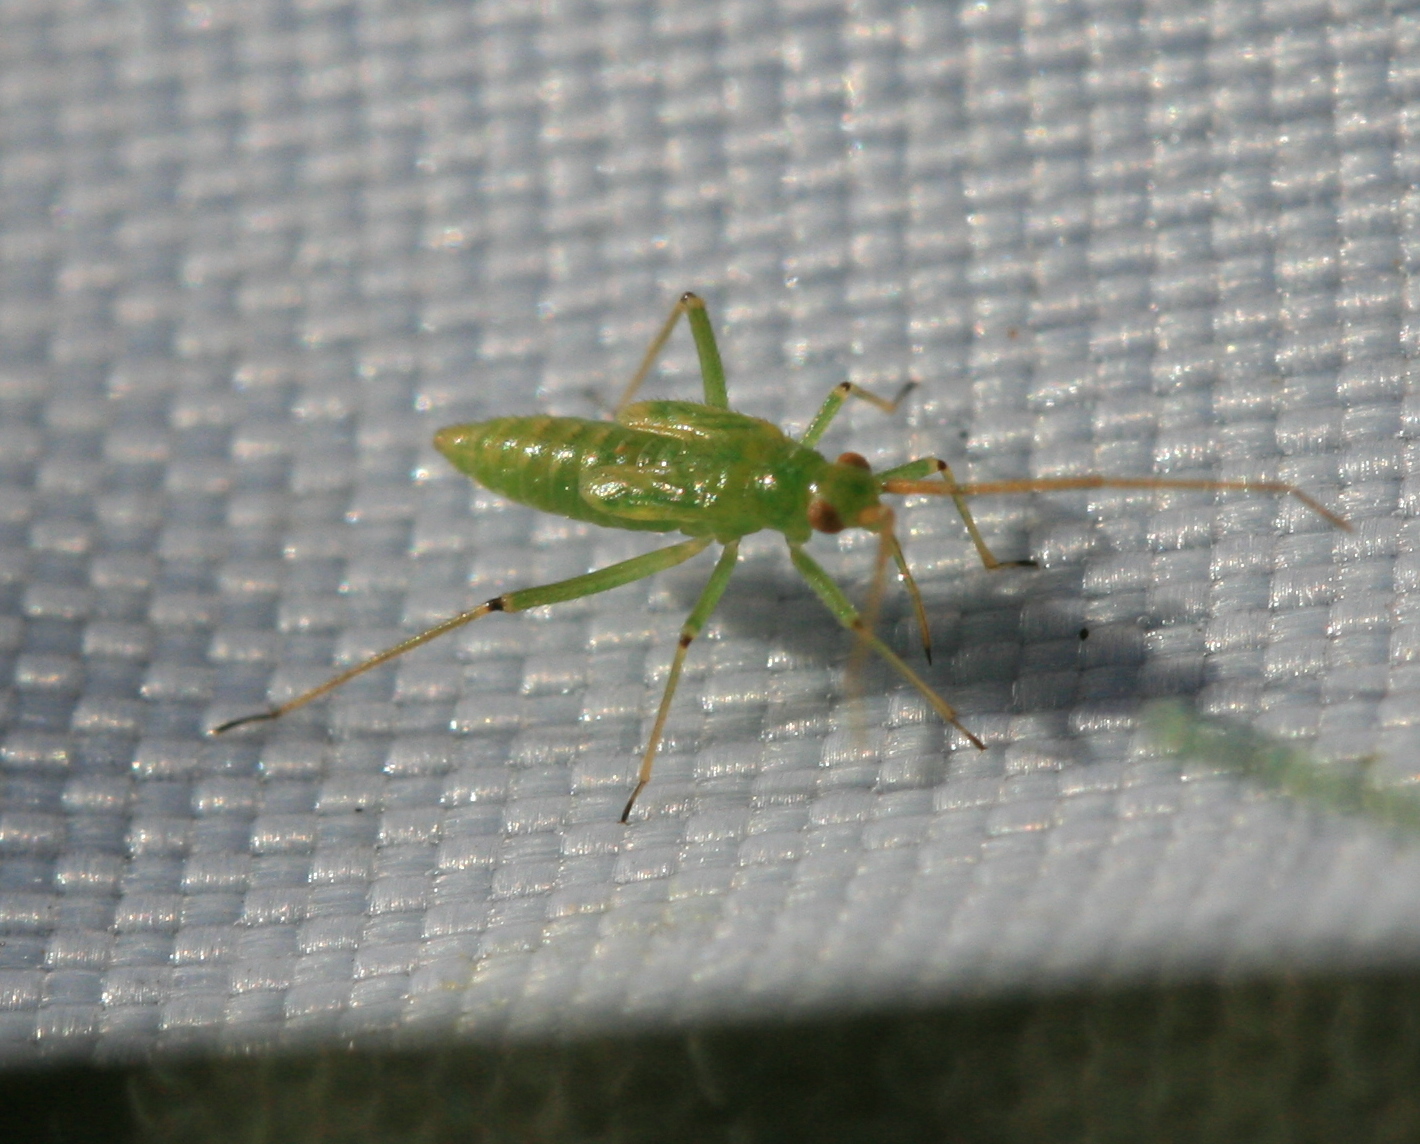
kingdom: Animalia
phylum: Arthropoda
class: Insecta
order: Hemiptera
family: Miridae
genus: Blepharidopterus
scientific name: Blepharidopterus angulatus
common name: Plant bug
